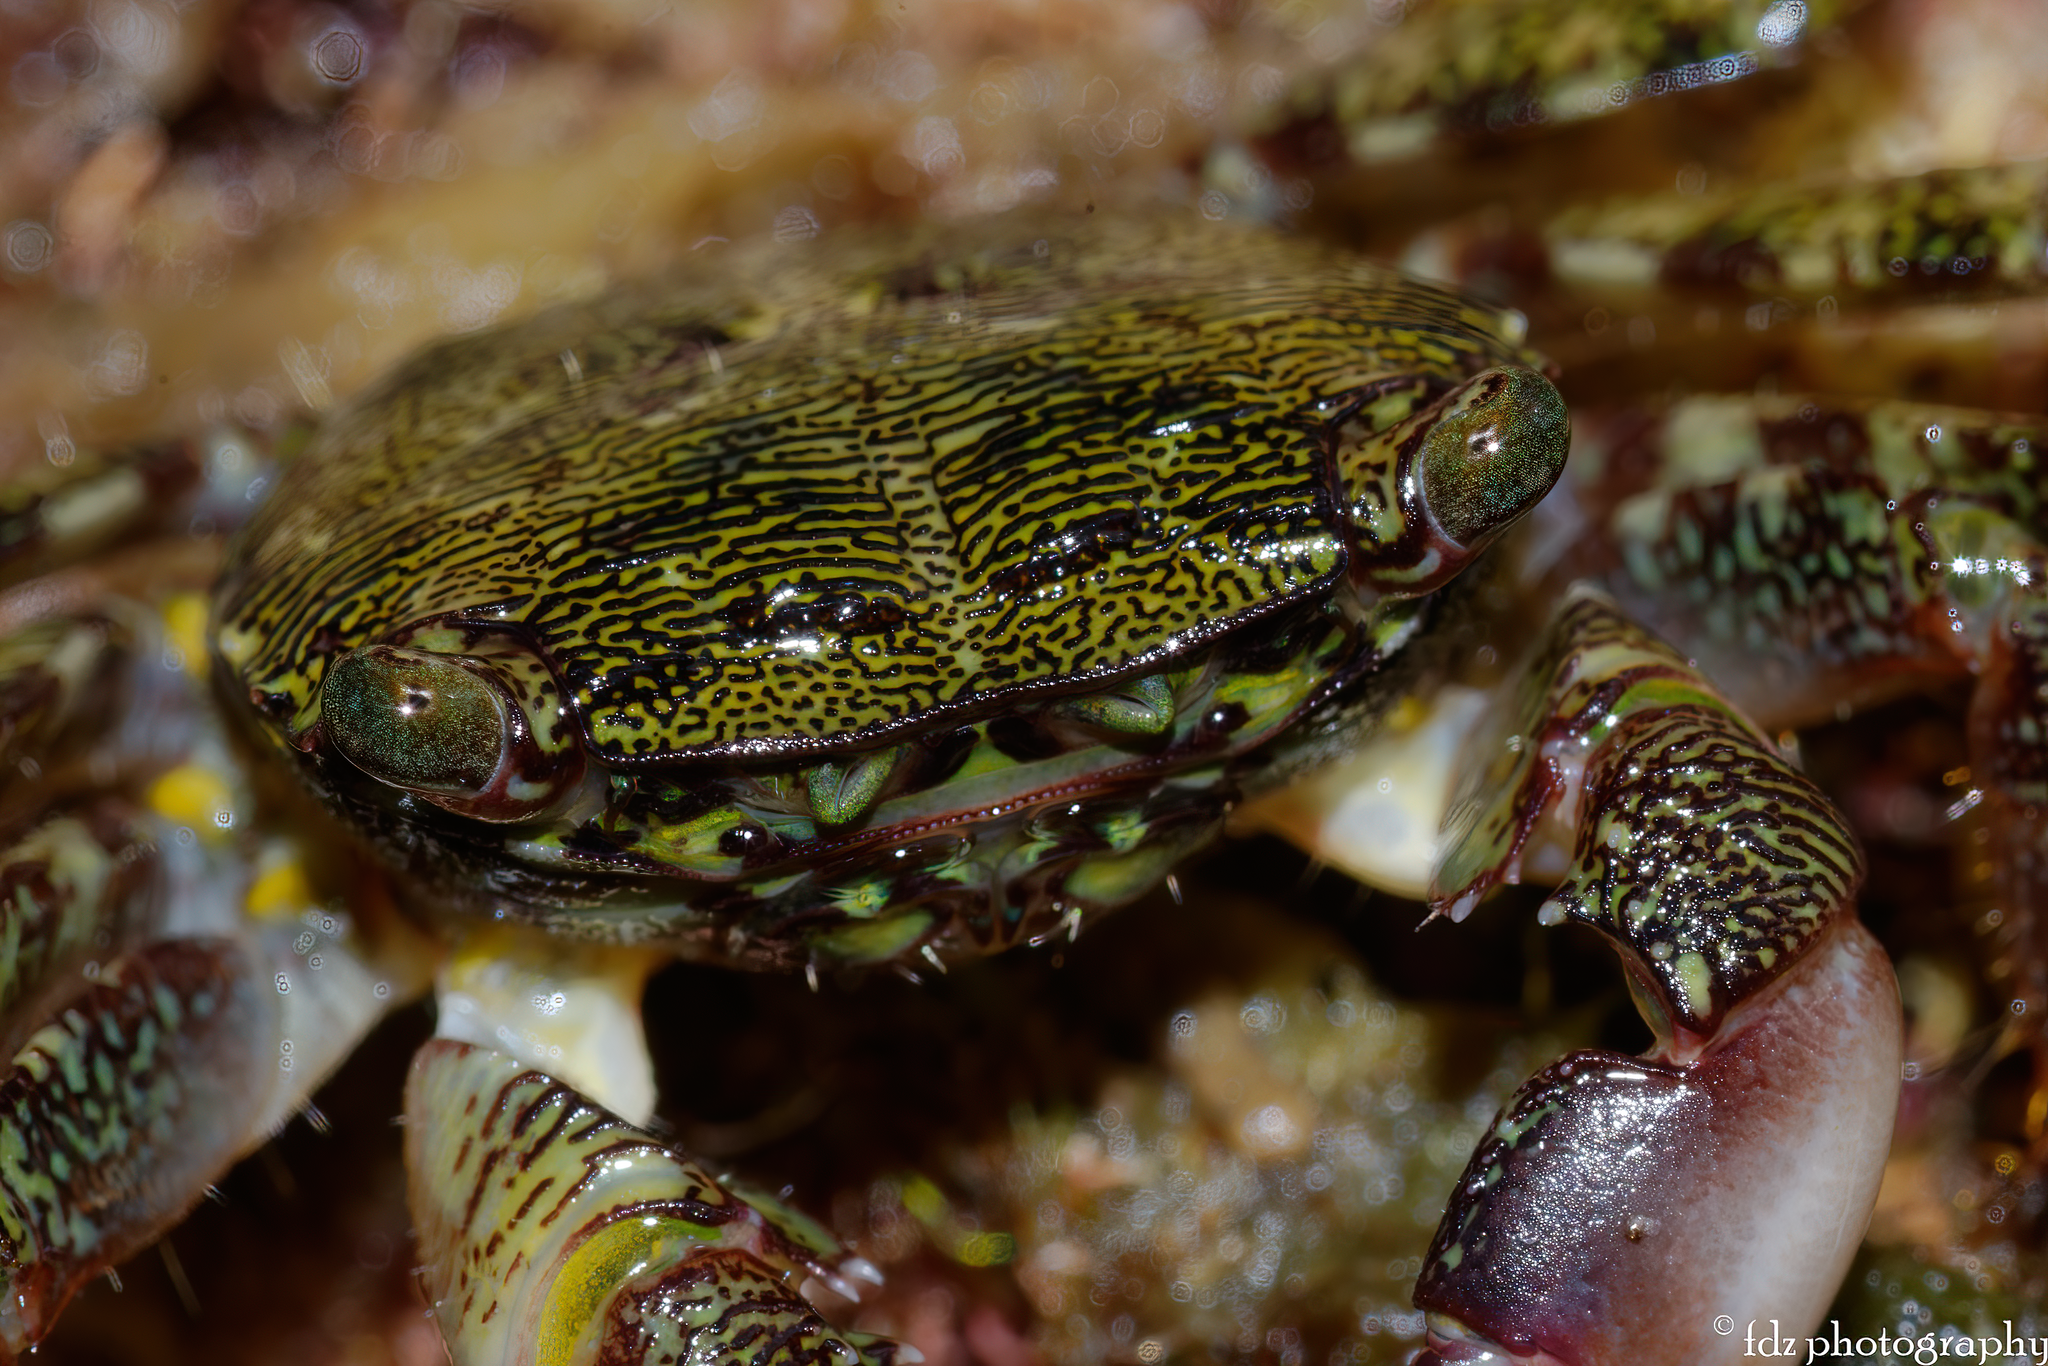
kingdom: Animalia
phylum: Arthropoda
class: Malacostraca
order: Decapoda
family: Grapsidae
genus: Pachygrapsus
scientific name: Pachygrapsus transversus
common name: Mottled shore crab
